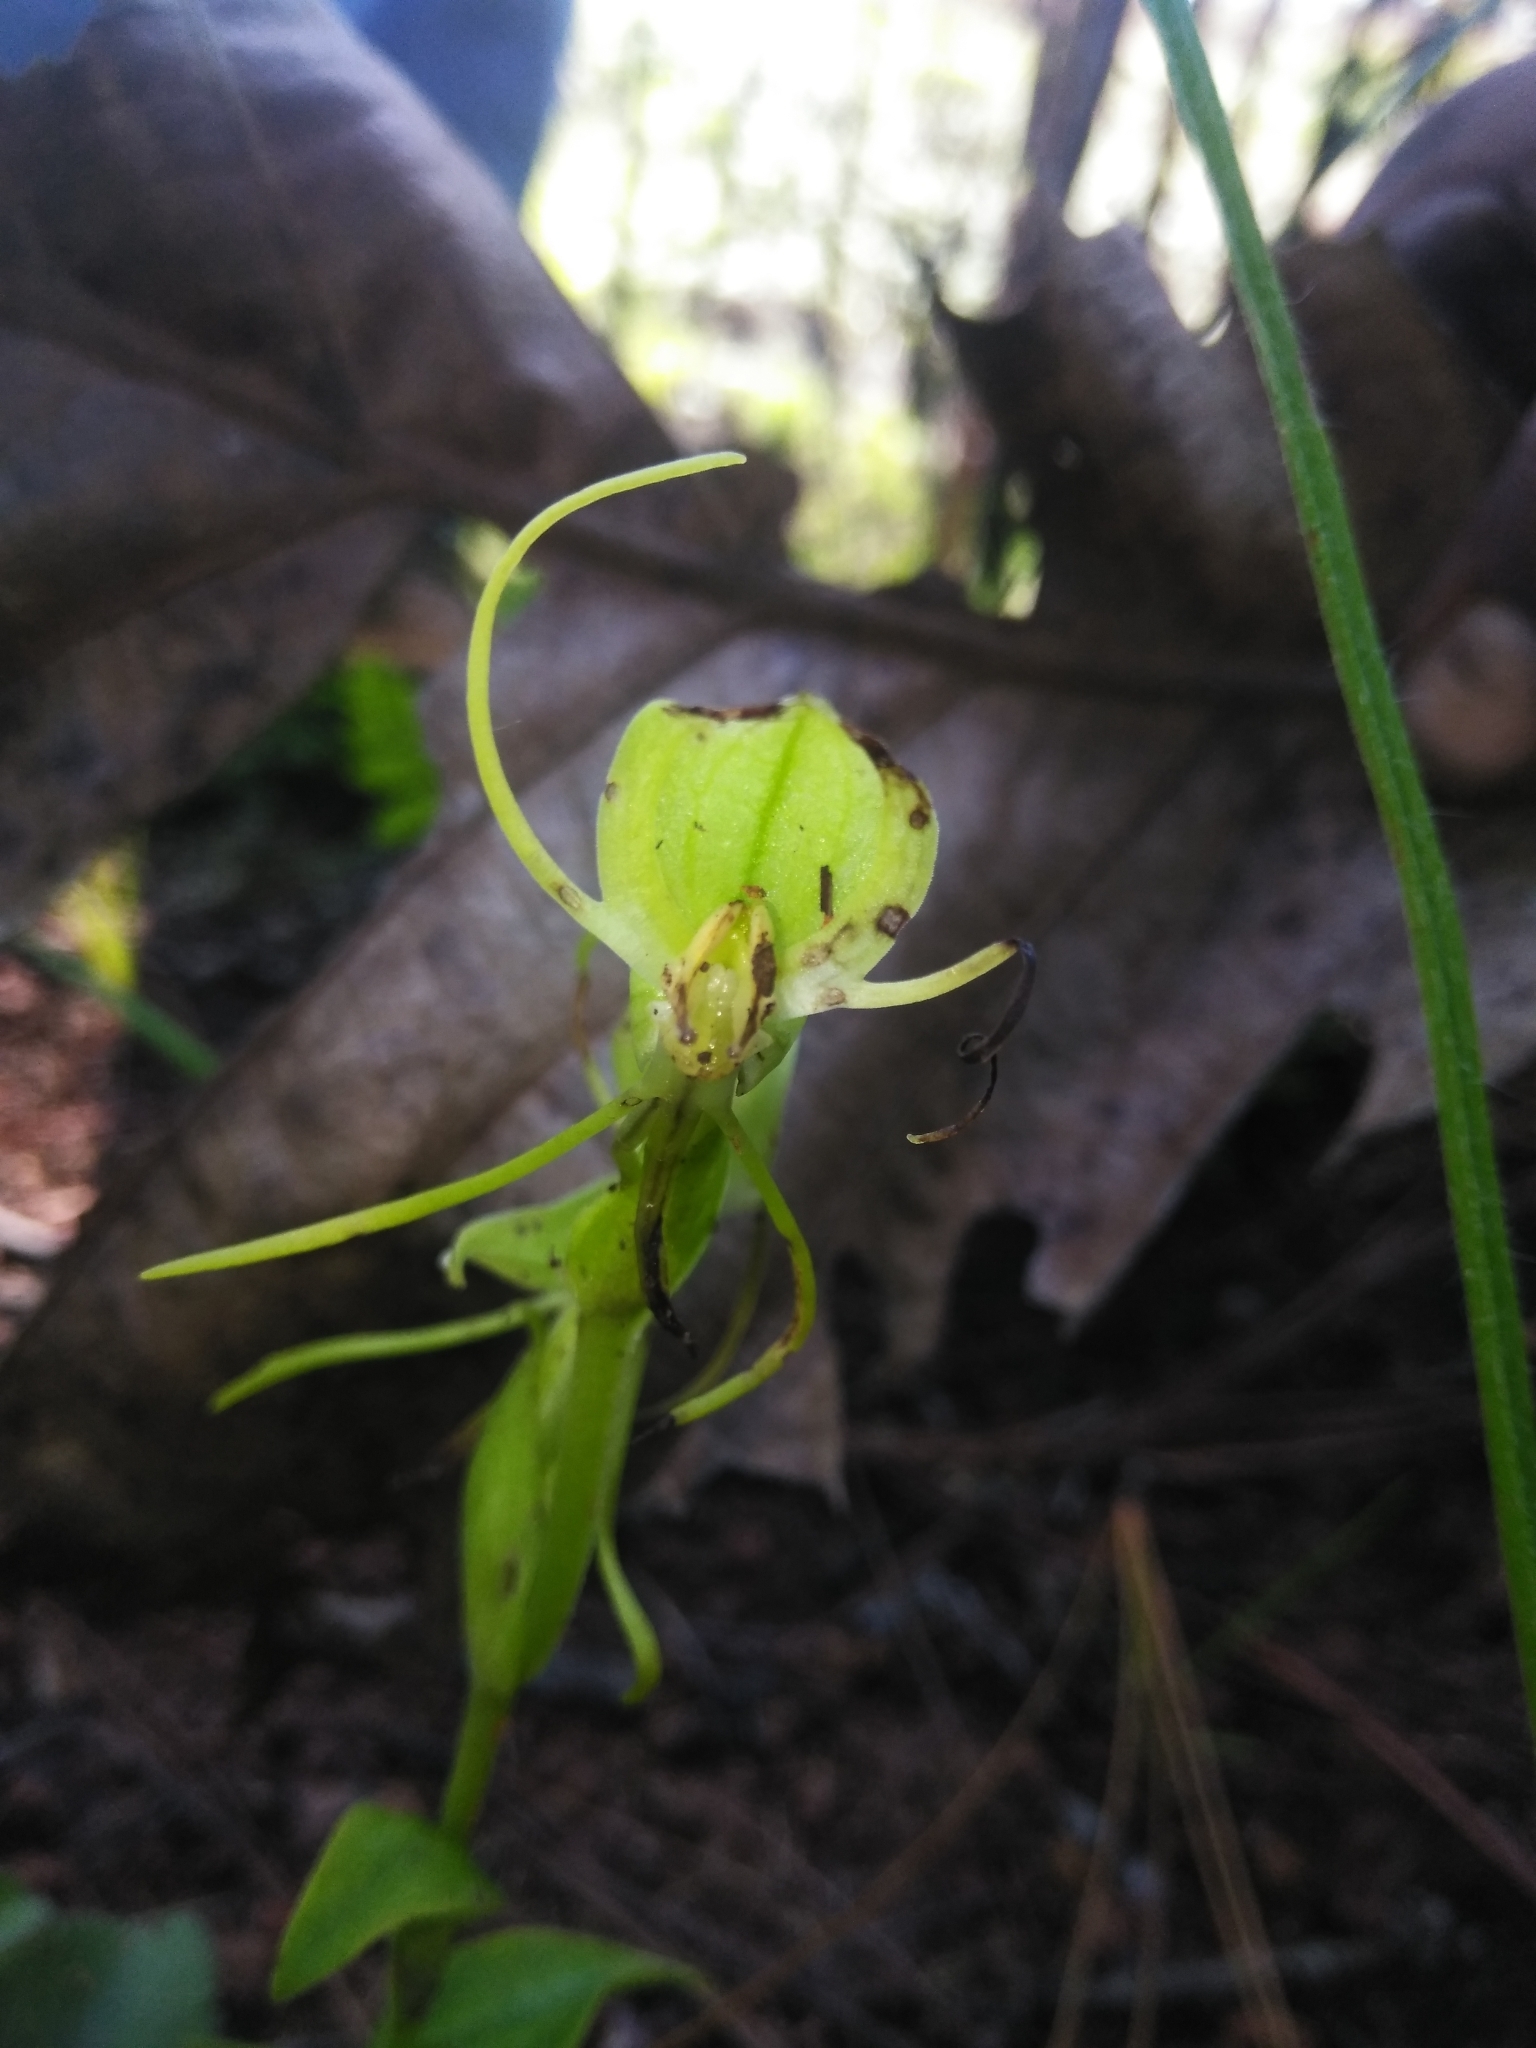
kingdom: Plantae
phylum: Tracheophyta
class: Liliopsida
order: Asparagales
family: Orchidaceae
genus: Habenaria
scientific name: Habenaria rzedowskiana
